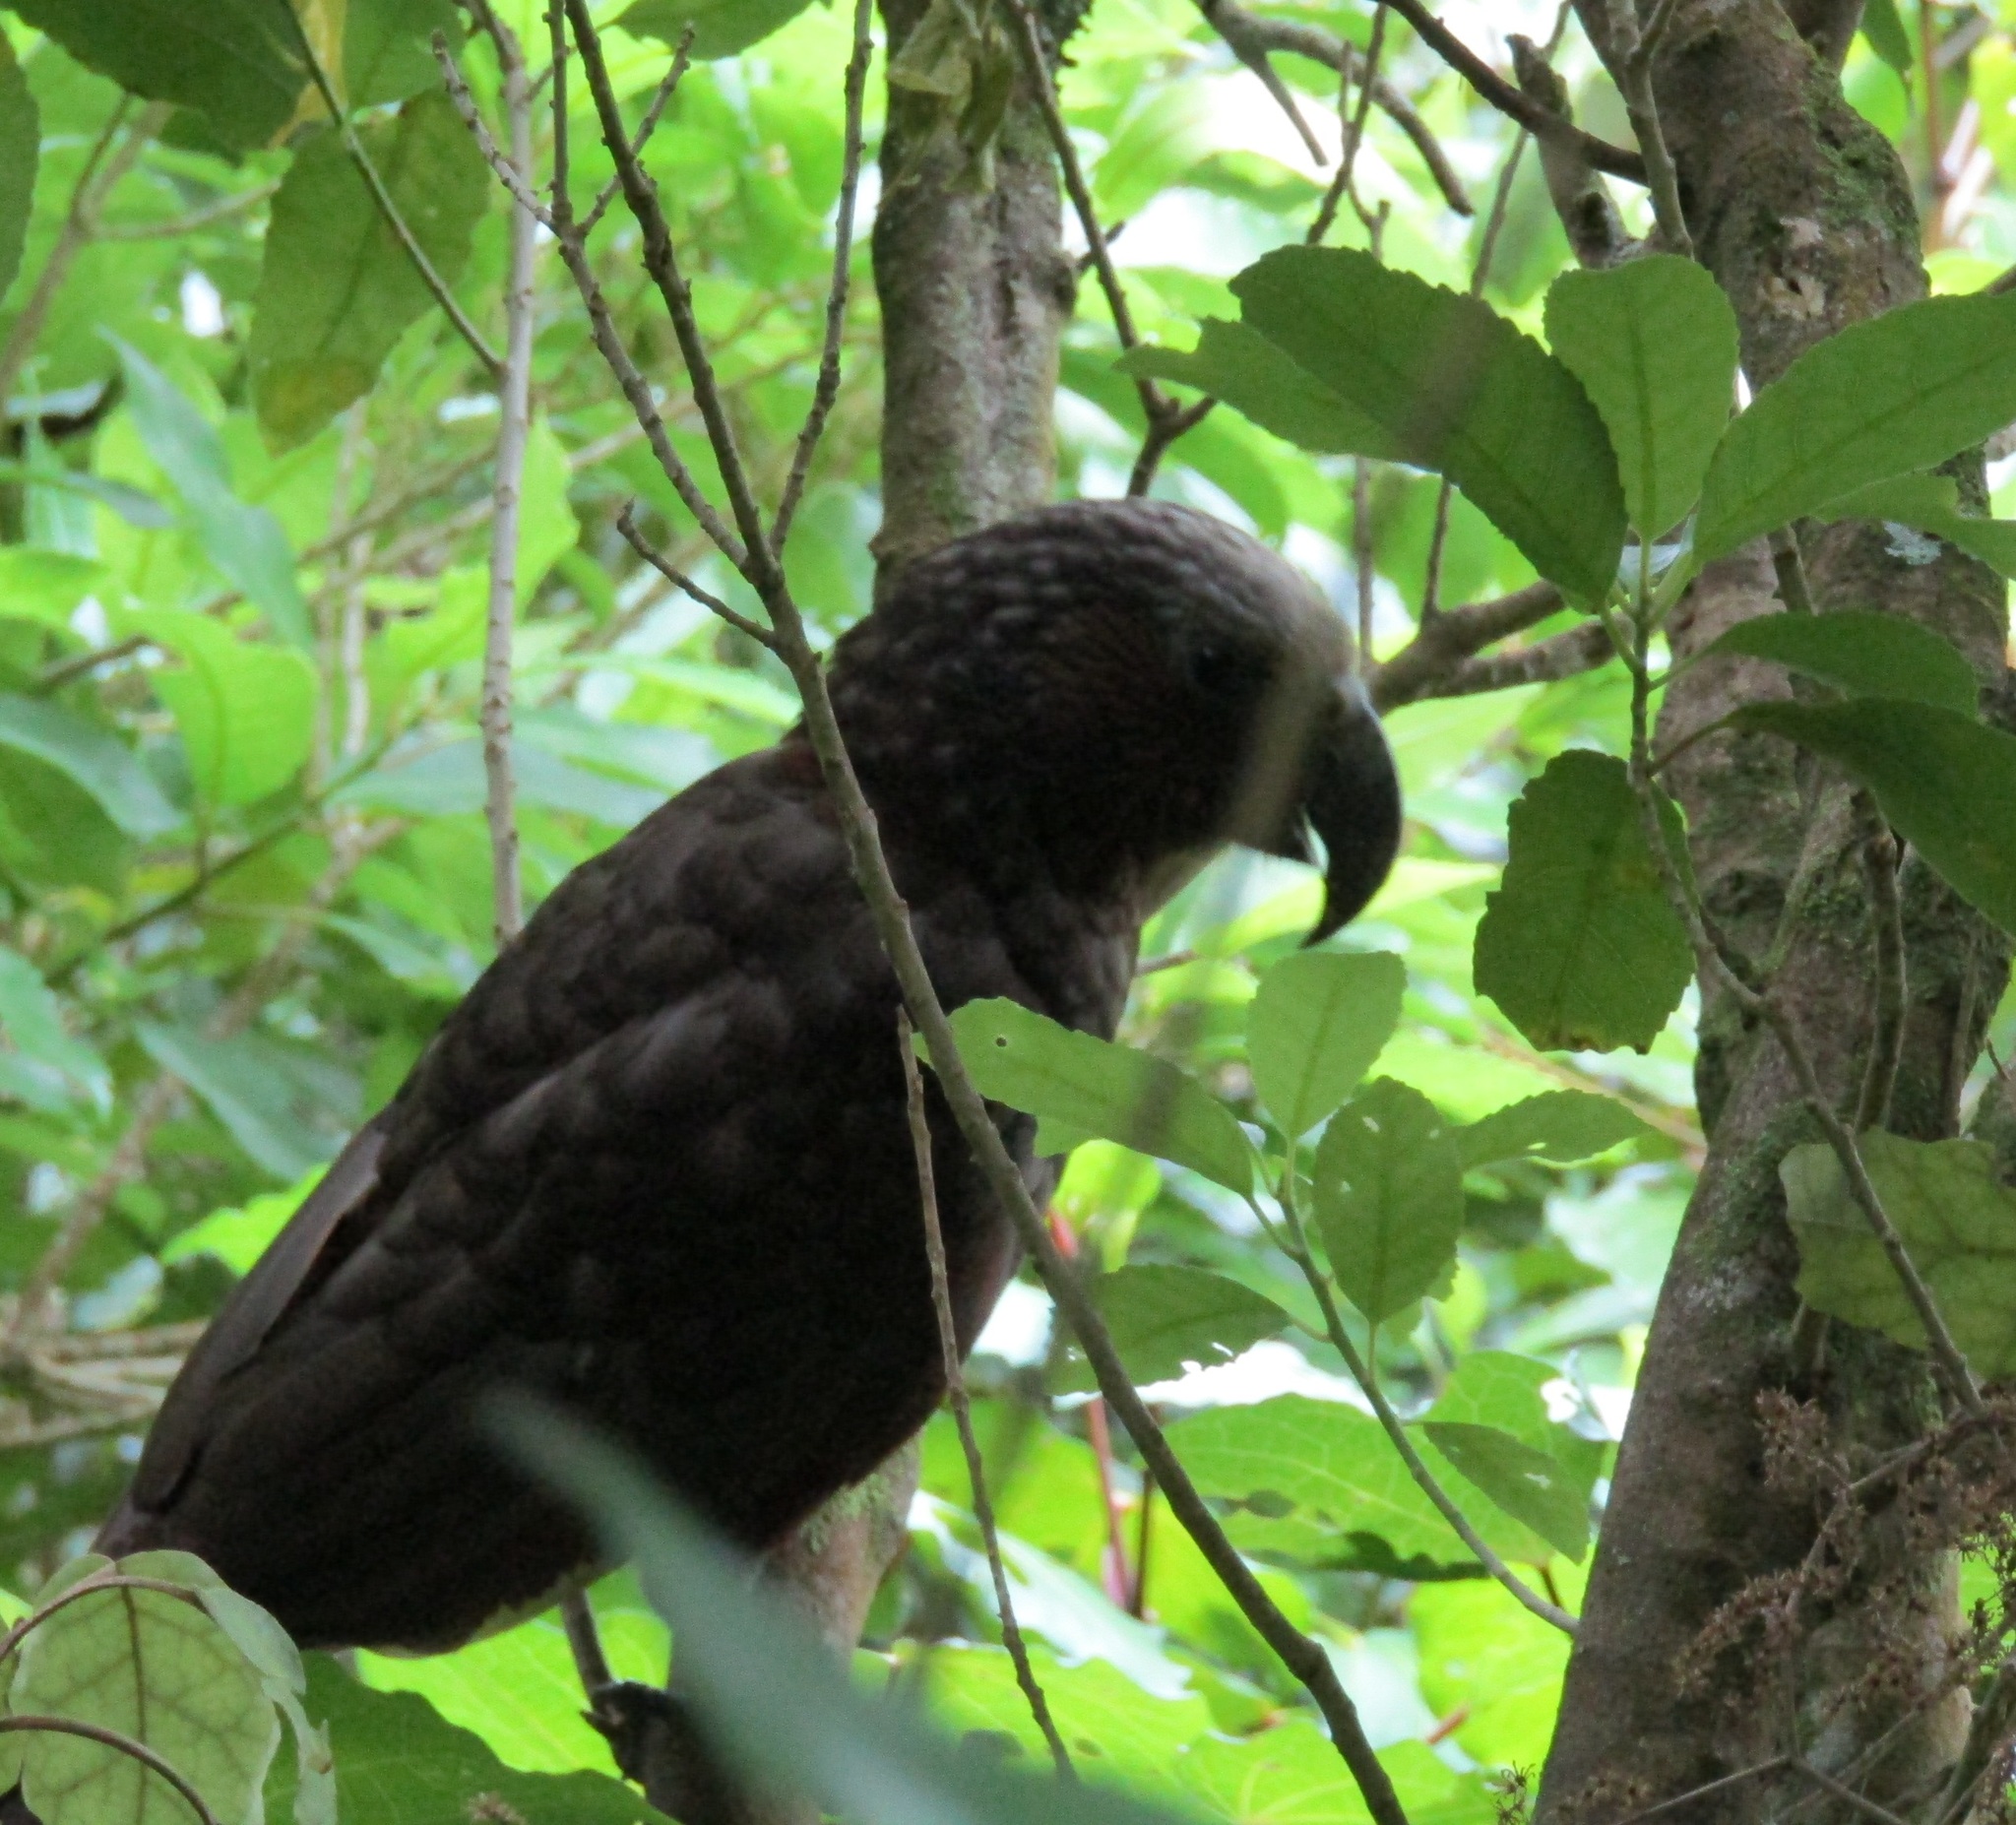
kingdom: Animalia
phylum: Chordata
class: Aves
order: Psittaciformes
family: Psittacidae
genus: Nestor
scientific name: Nestor meridionalis
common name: New zealand kaka
